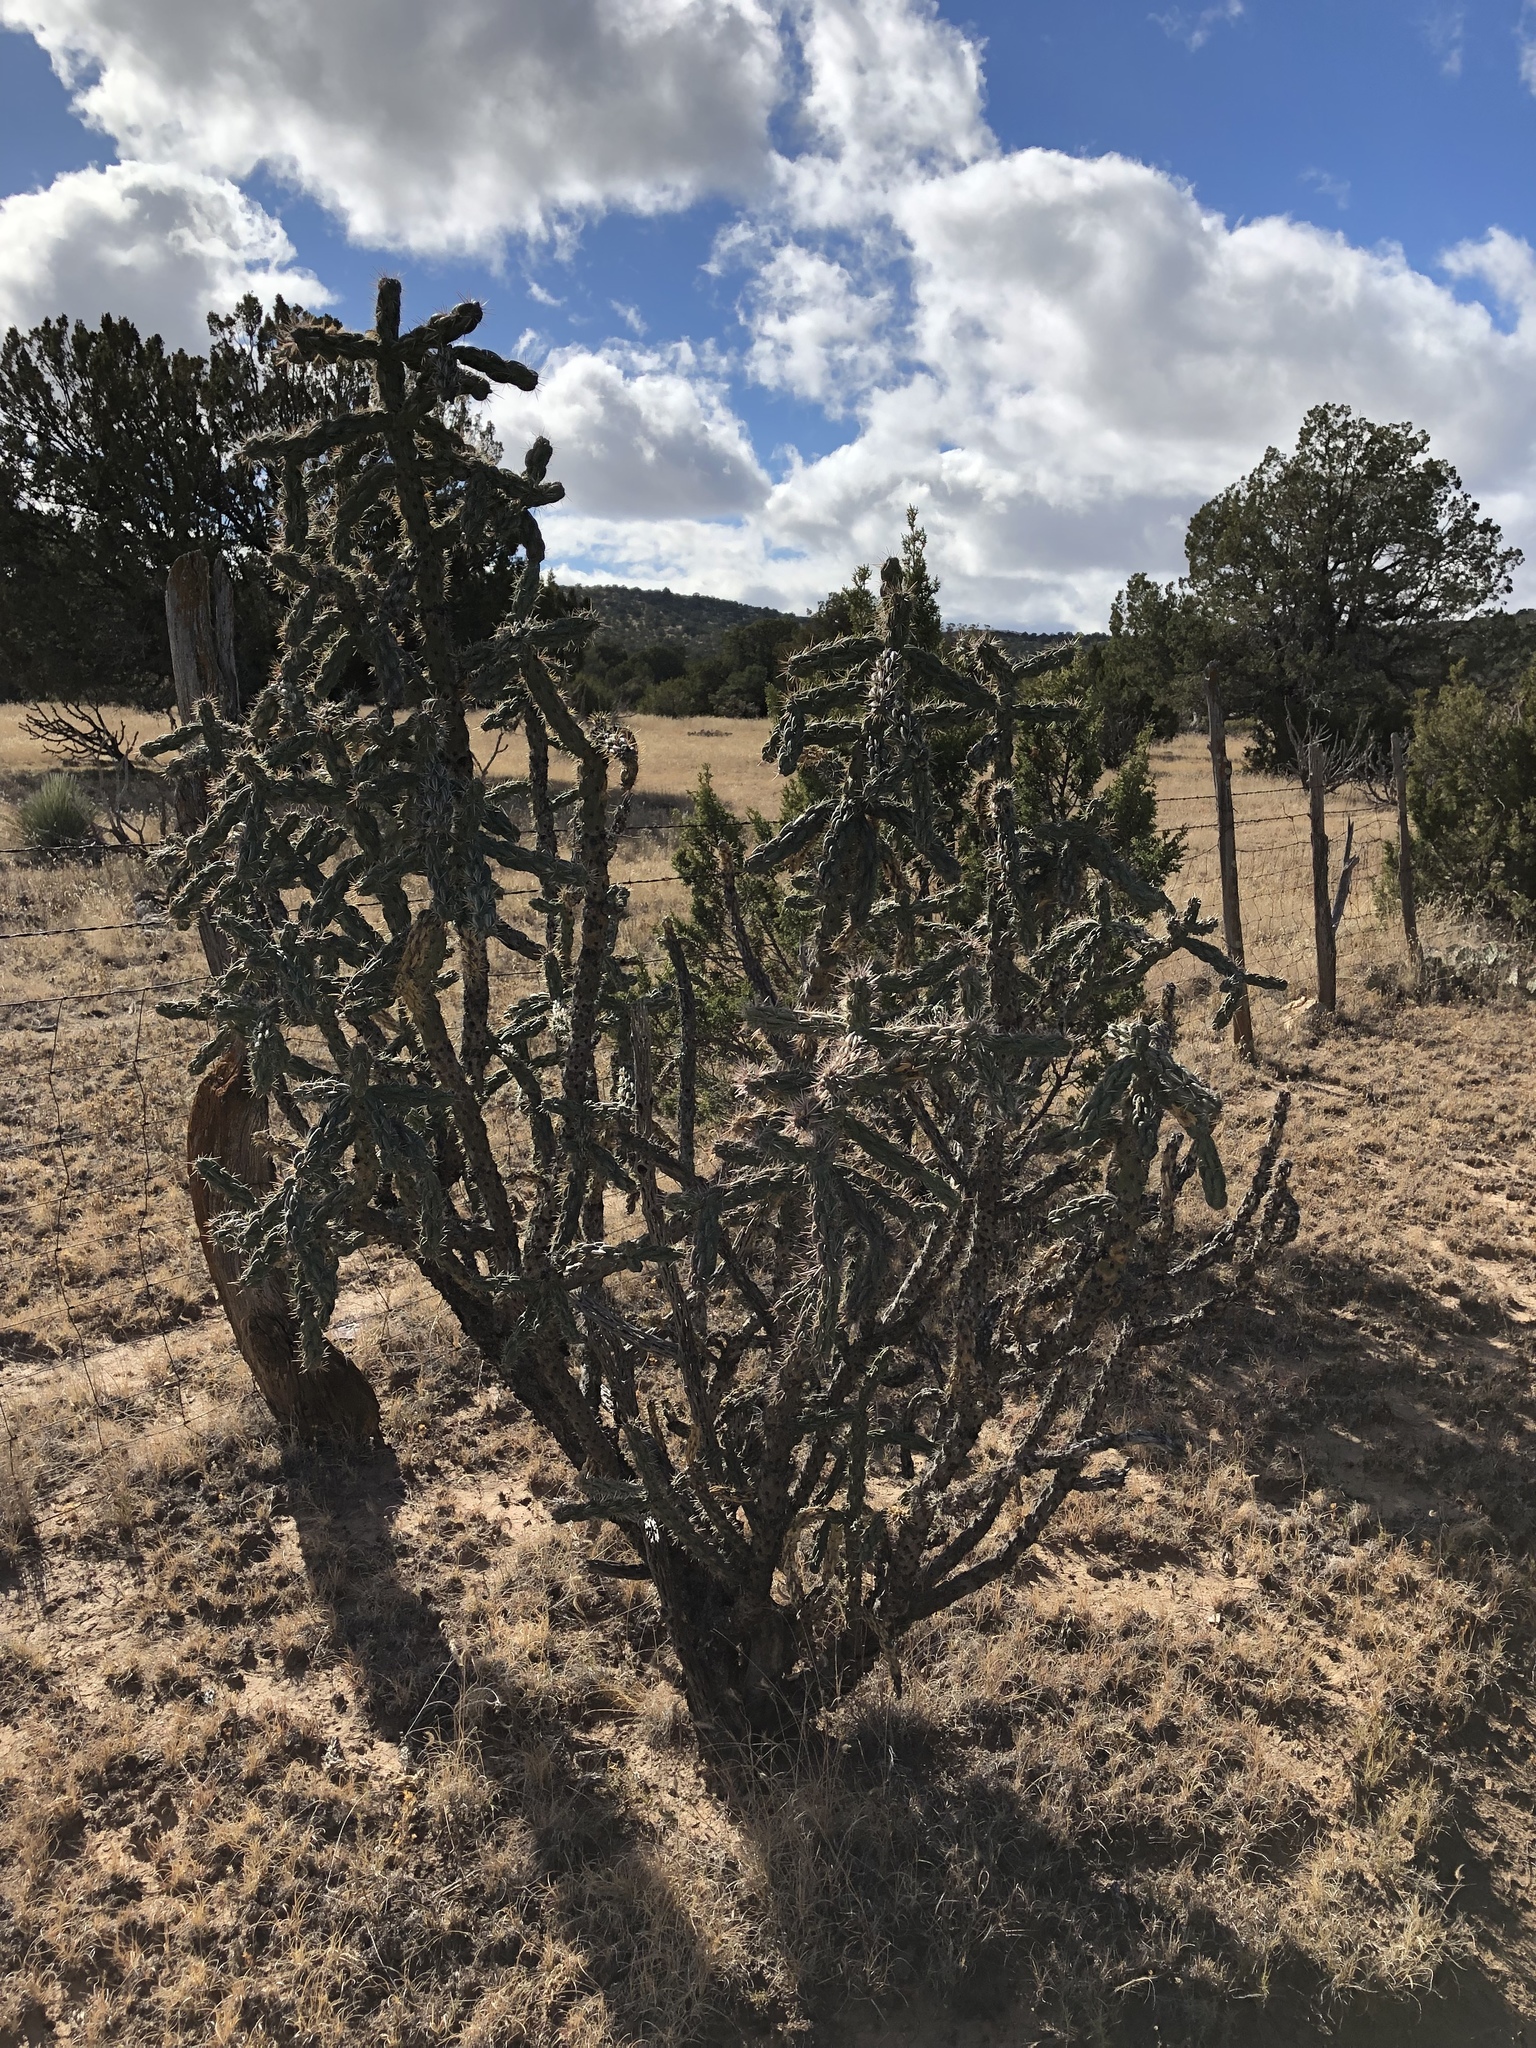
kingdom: Plantae
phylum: Tracheophyta
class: Magnoliopsida
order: Caryophyllales
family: Cactaceae
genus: Cylindropuntia
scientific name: Cylindropuntia imbricata
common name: Candelabrum cactus
